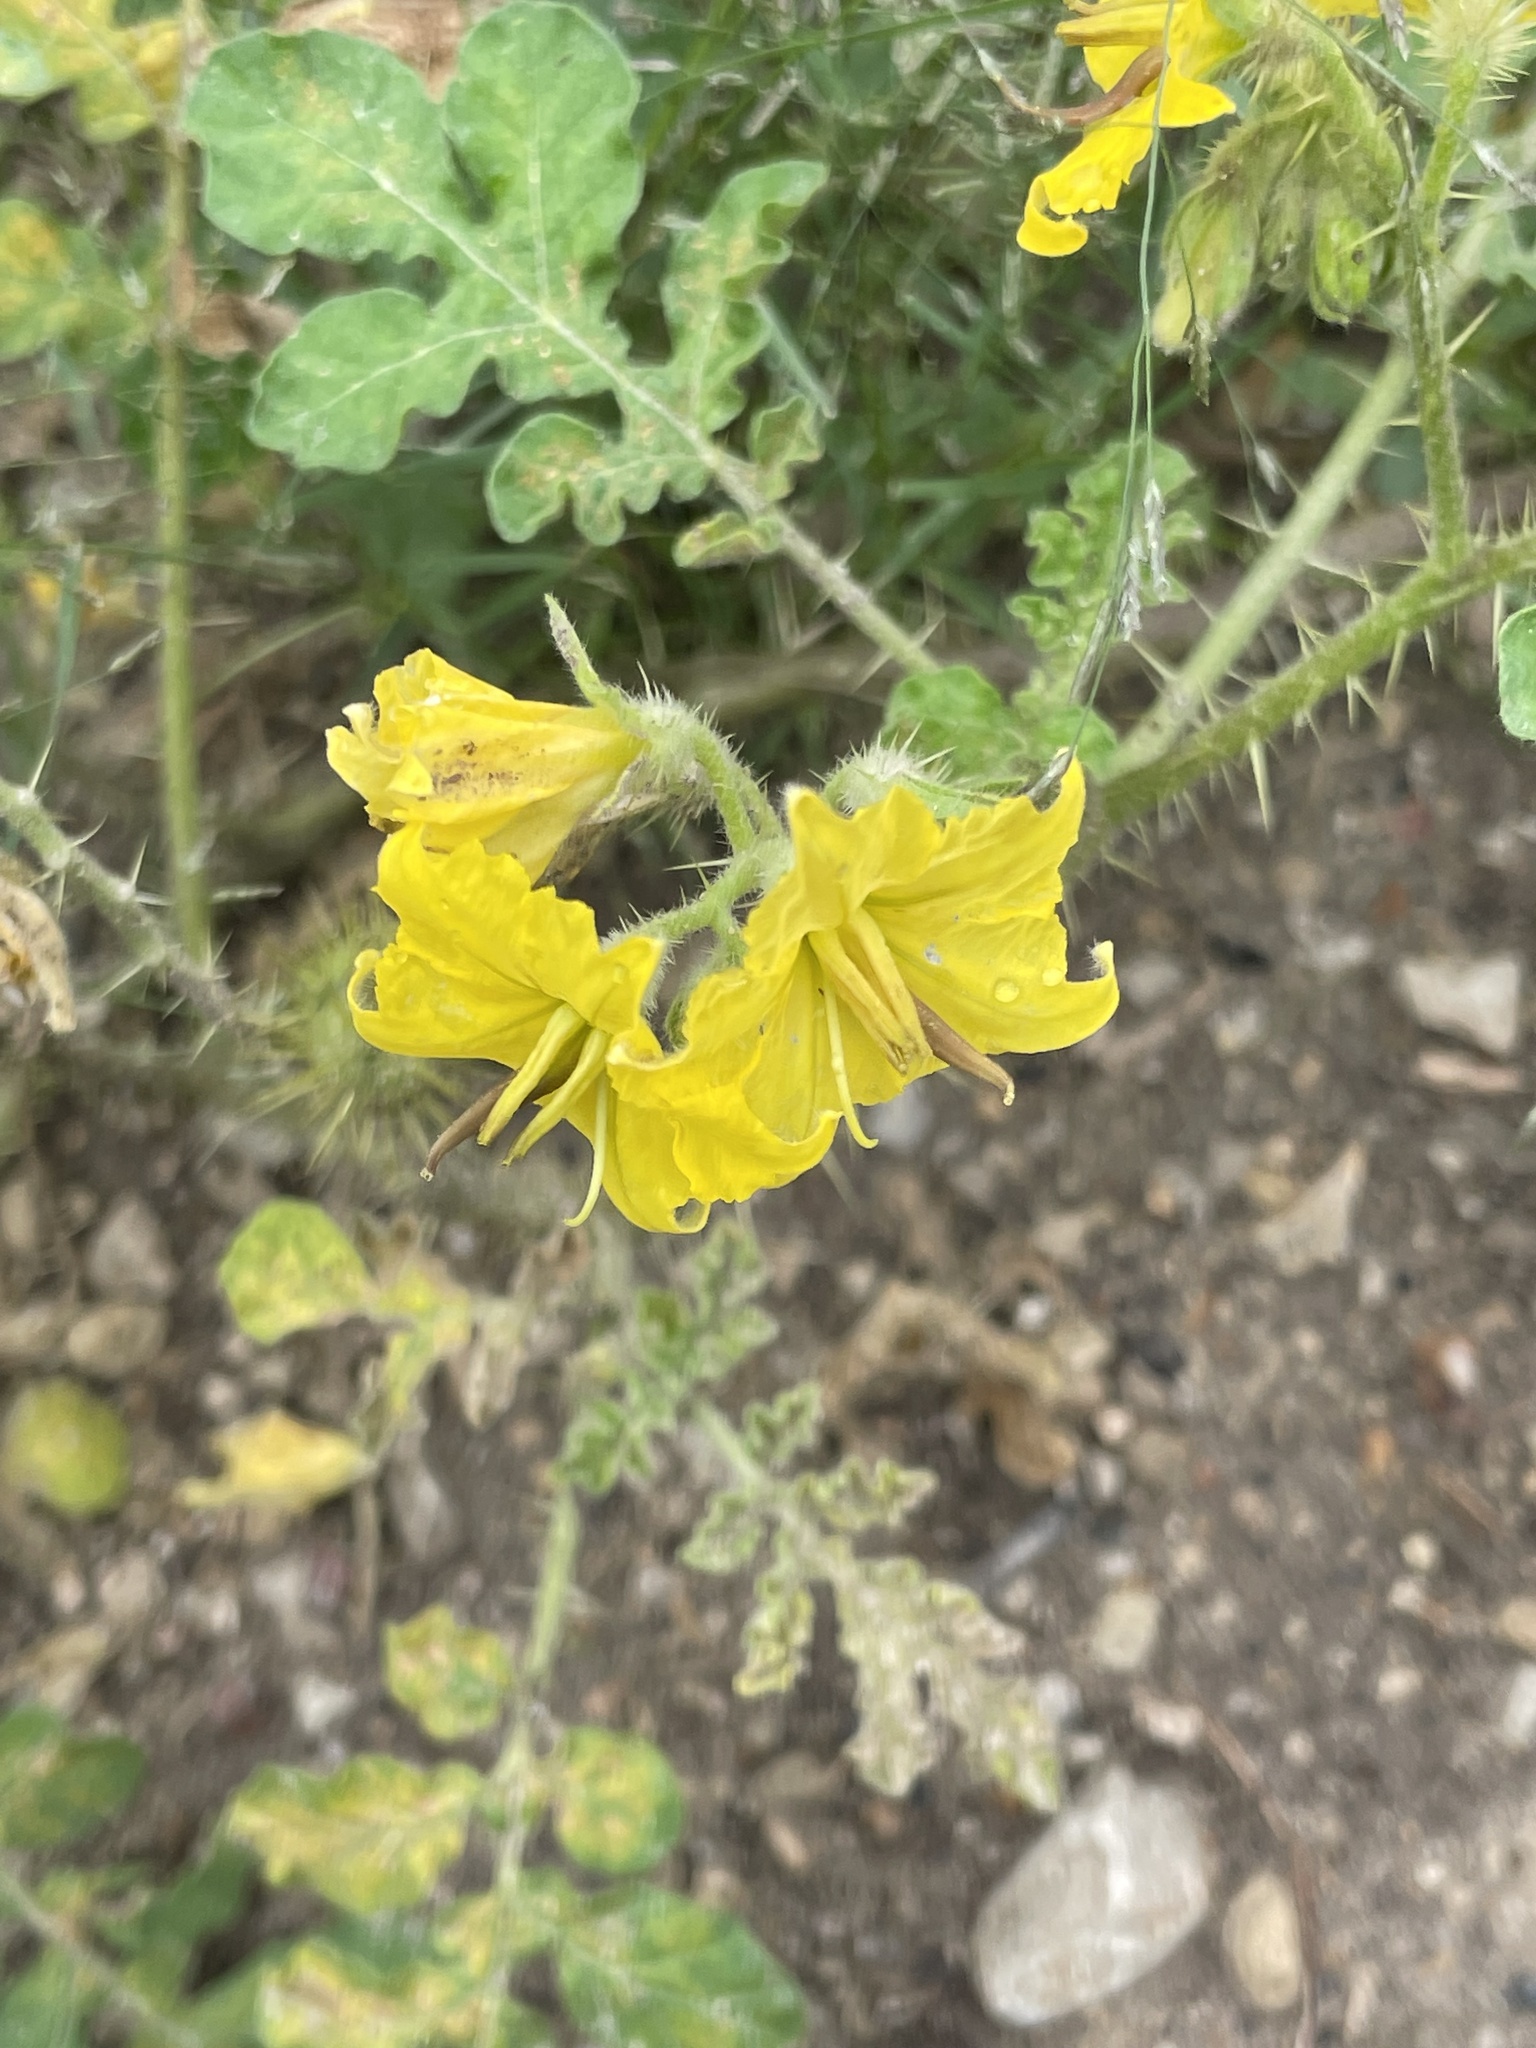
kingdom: Plantae
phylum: Tracheophyta
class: Magnoliopsida
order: Solanales
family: Solanaceae
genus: Solanum
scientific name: Solanum angustifolium
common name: Buffalobur nightshade
